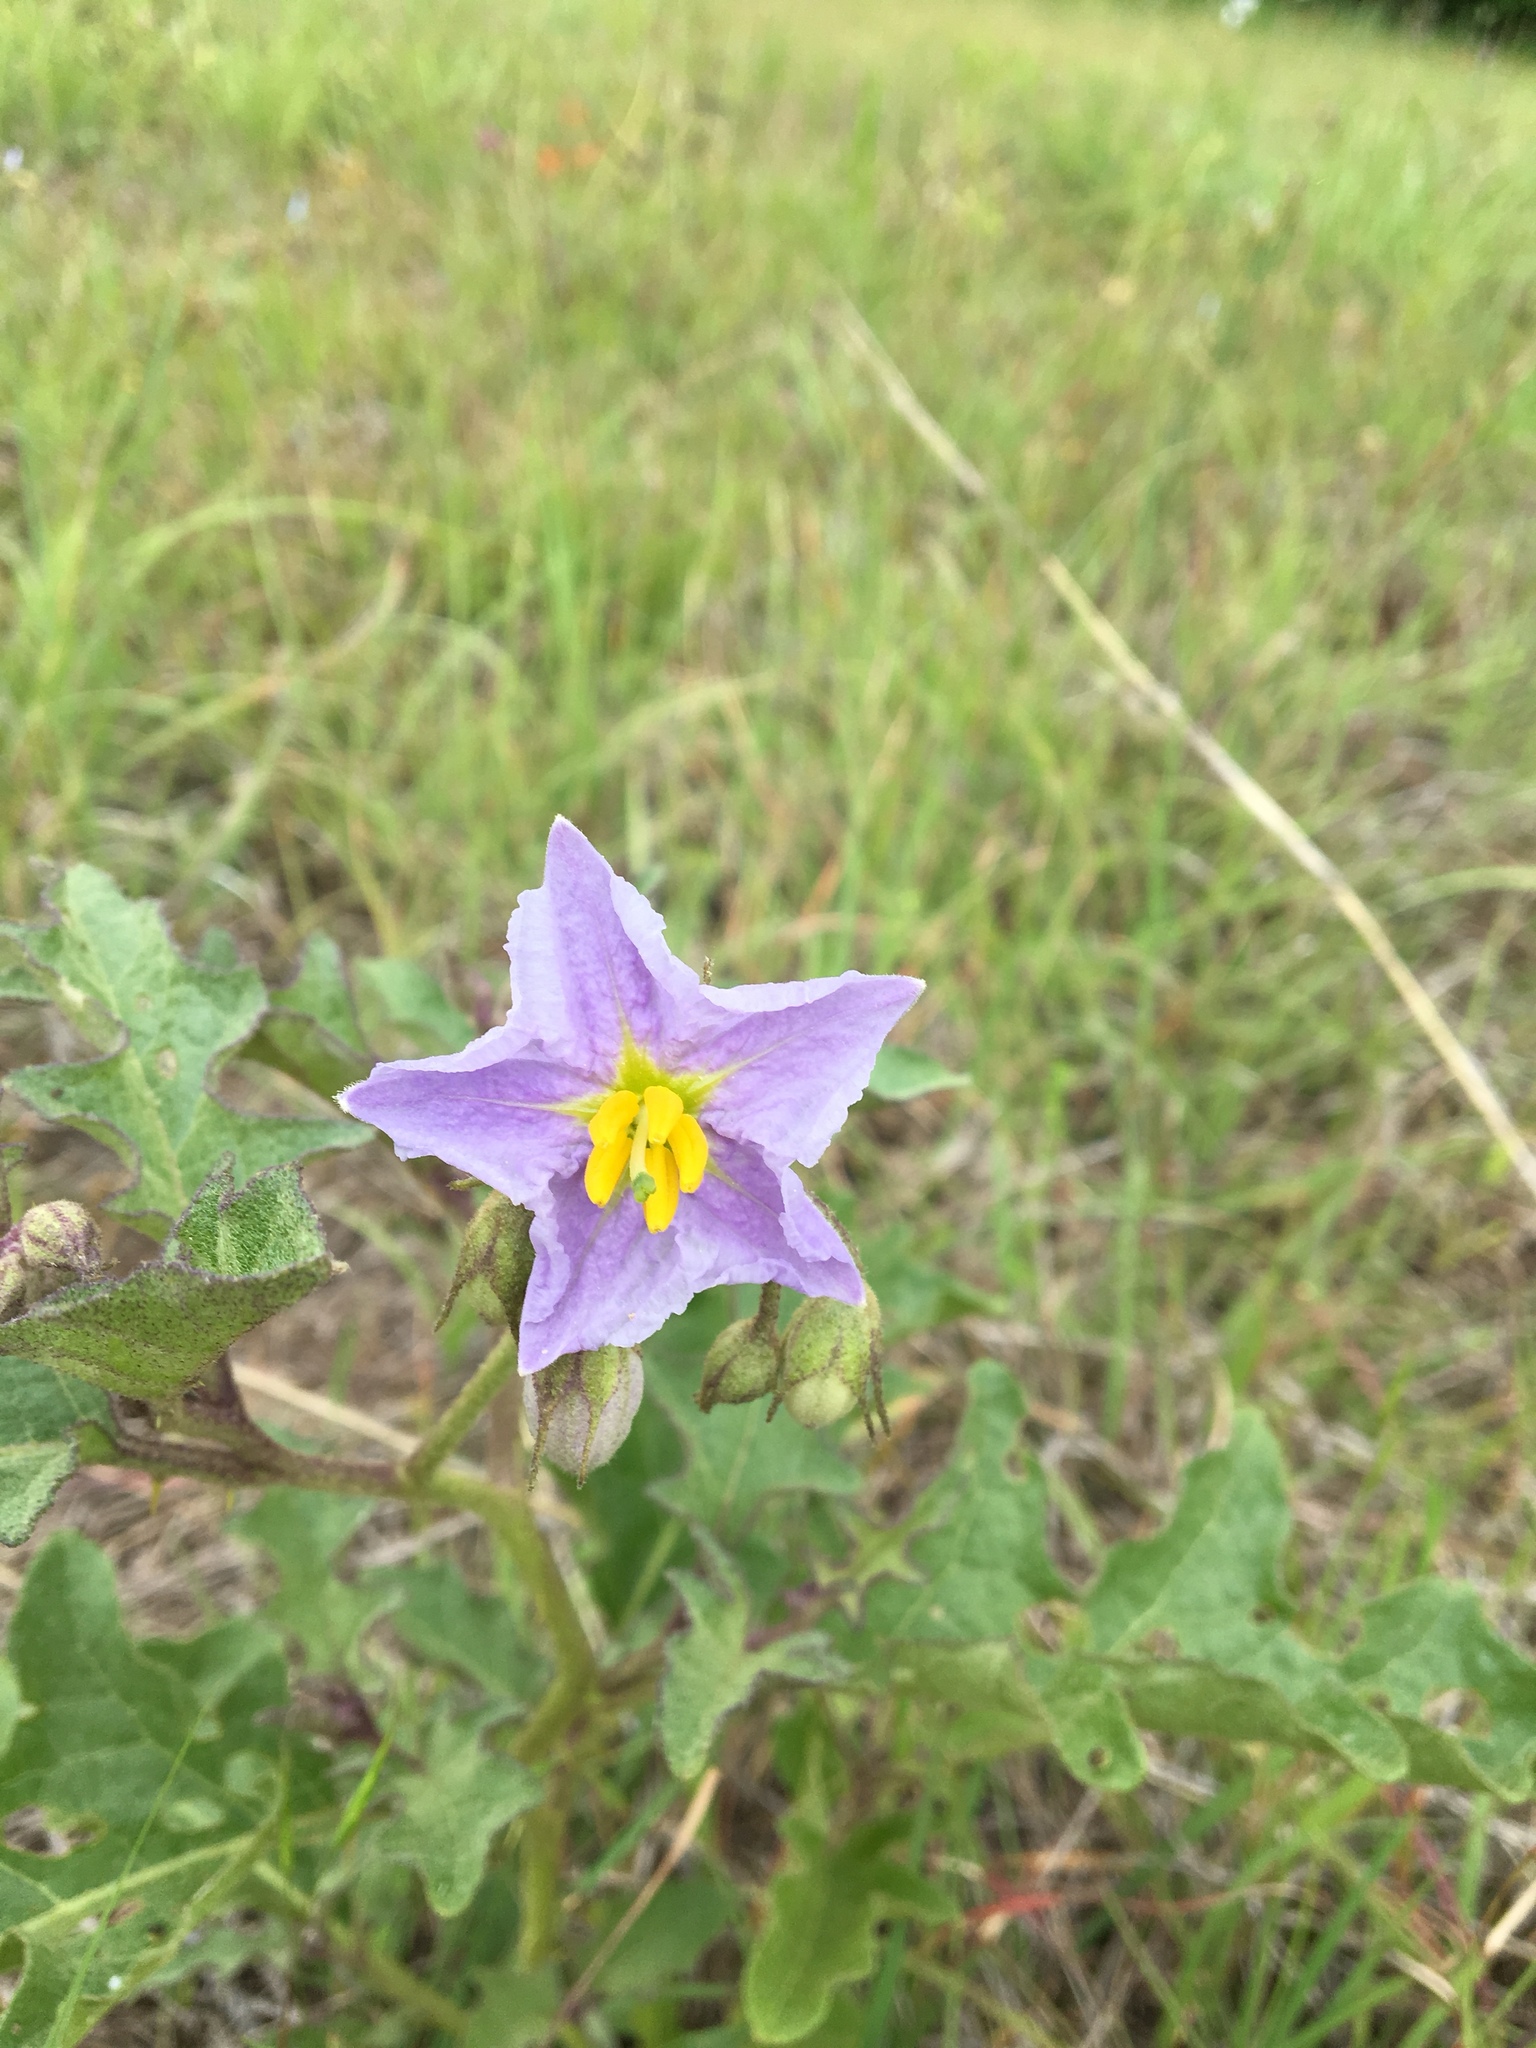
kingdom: Plantae
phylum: Tracheophyta
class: Magnoliopsida
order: Solanales
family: Solanaceae
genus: Solanum
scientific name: Solanum dimidiatum
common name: Carolina horse-nettle
